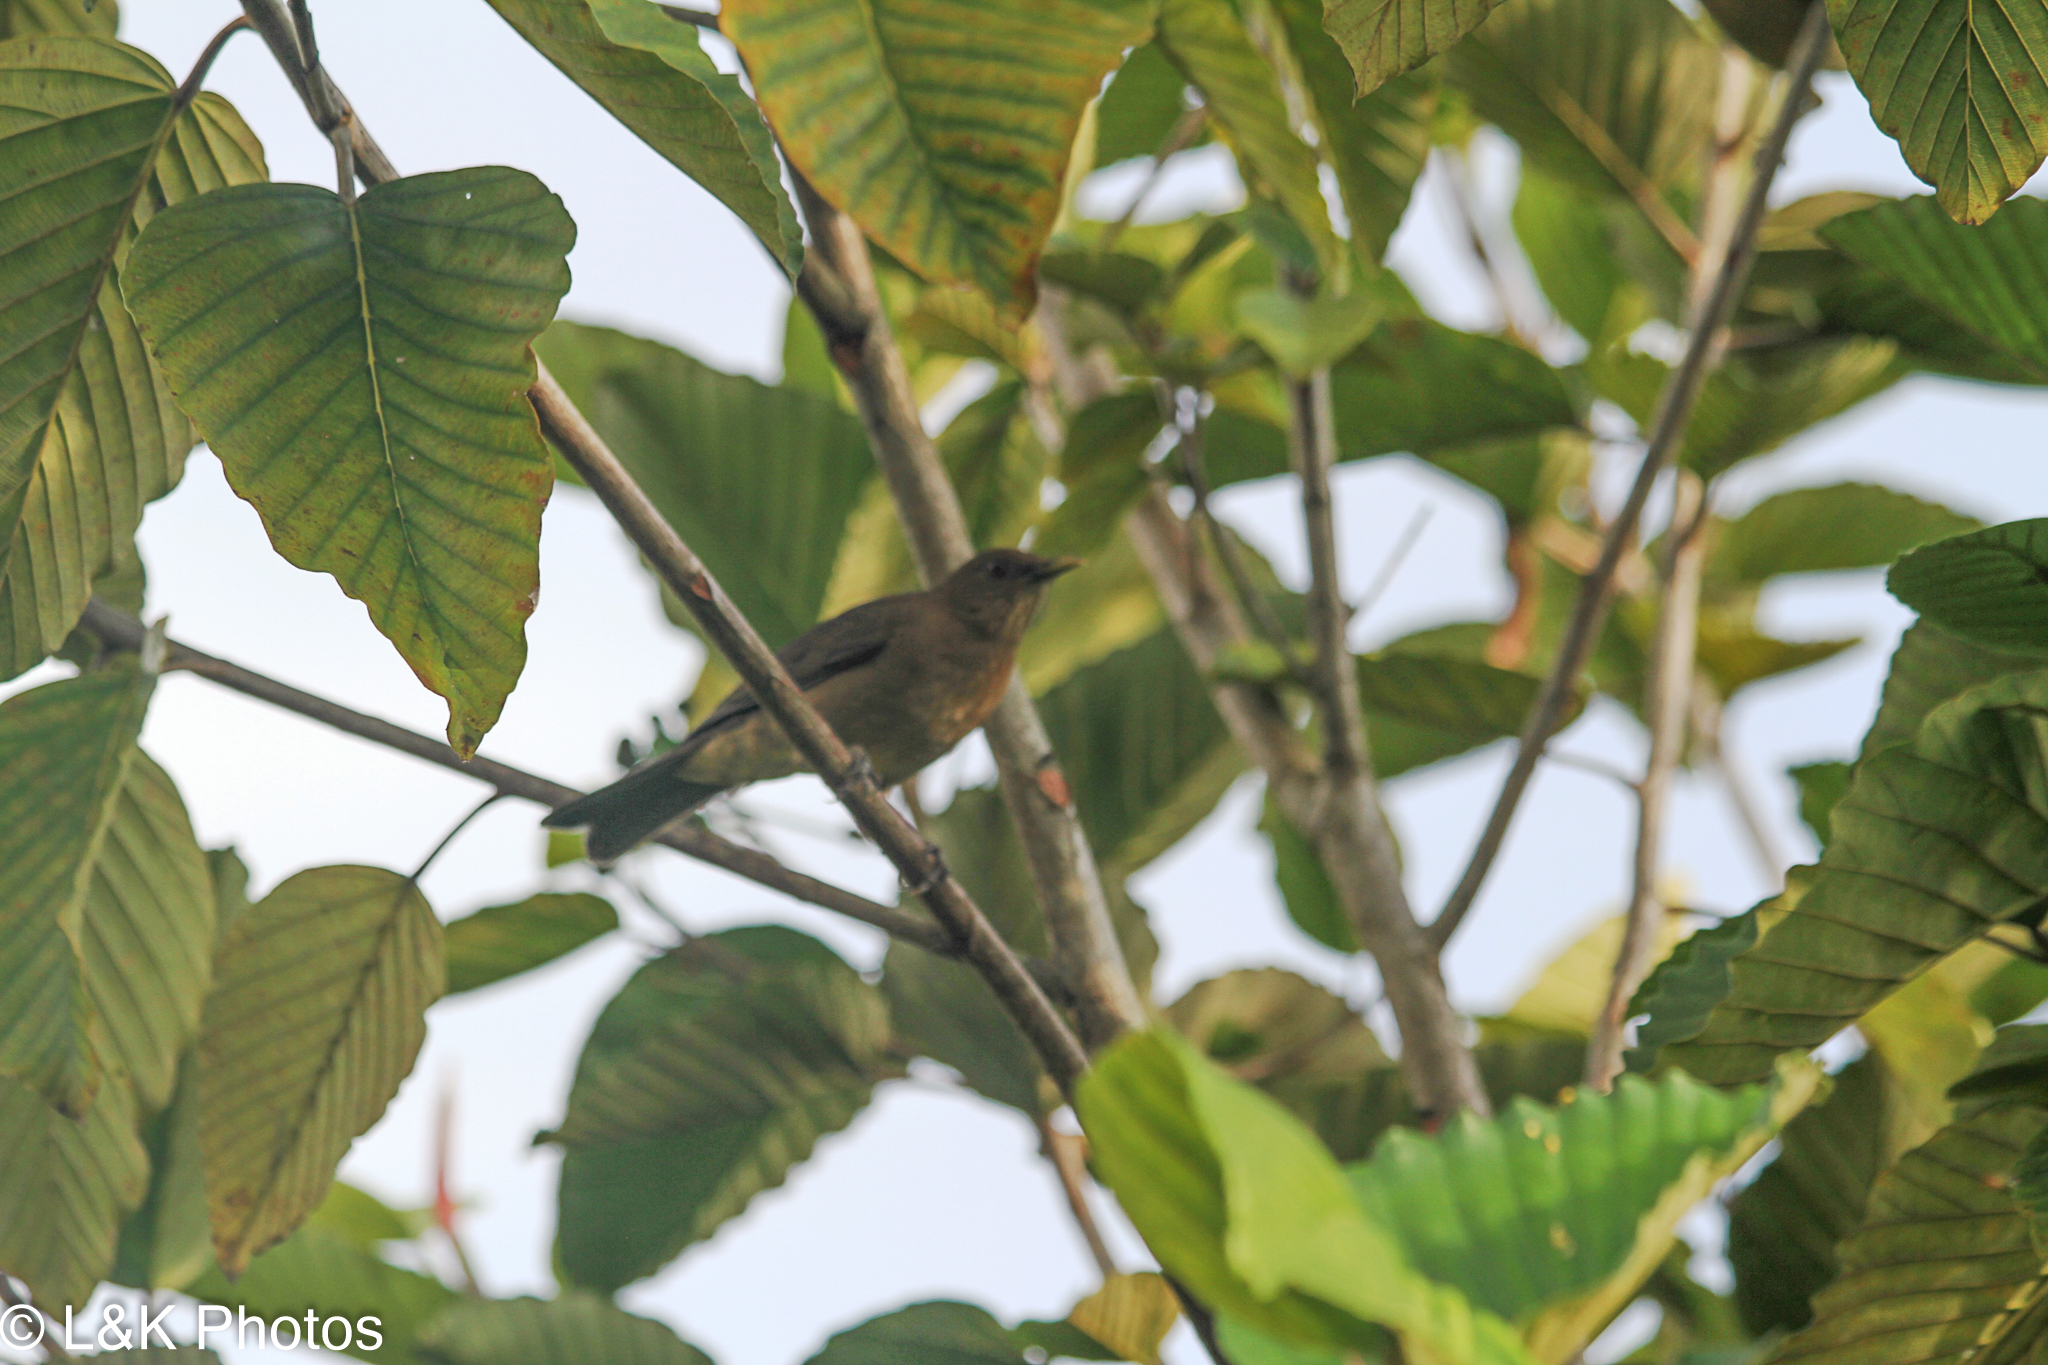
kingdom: Animalia
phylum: Chordata
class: Aves
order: Passeriformes
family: Turdidae
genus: Turdus
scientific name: Turdus grayi
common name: Clay-colored thrush
